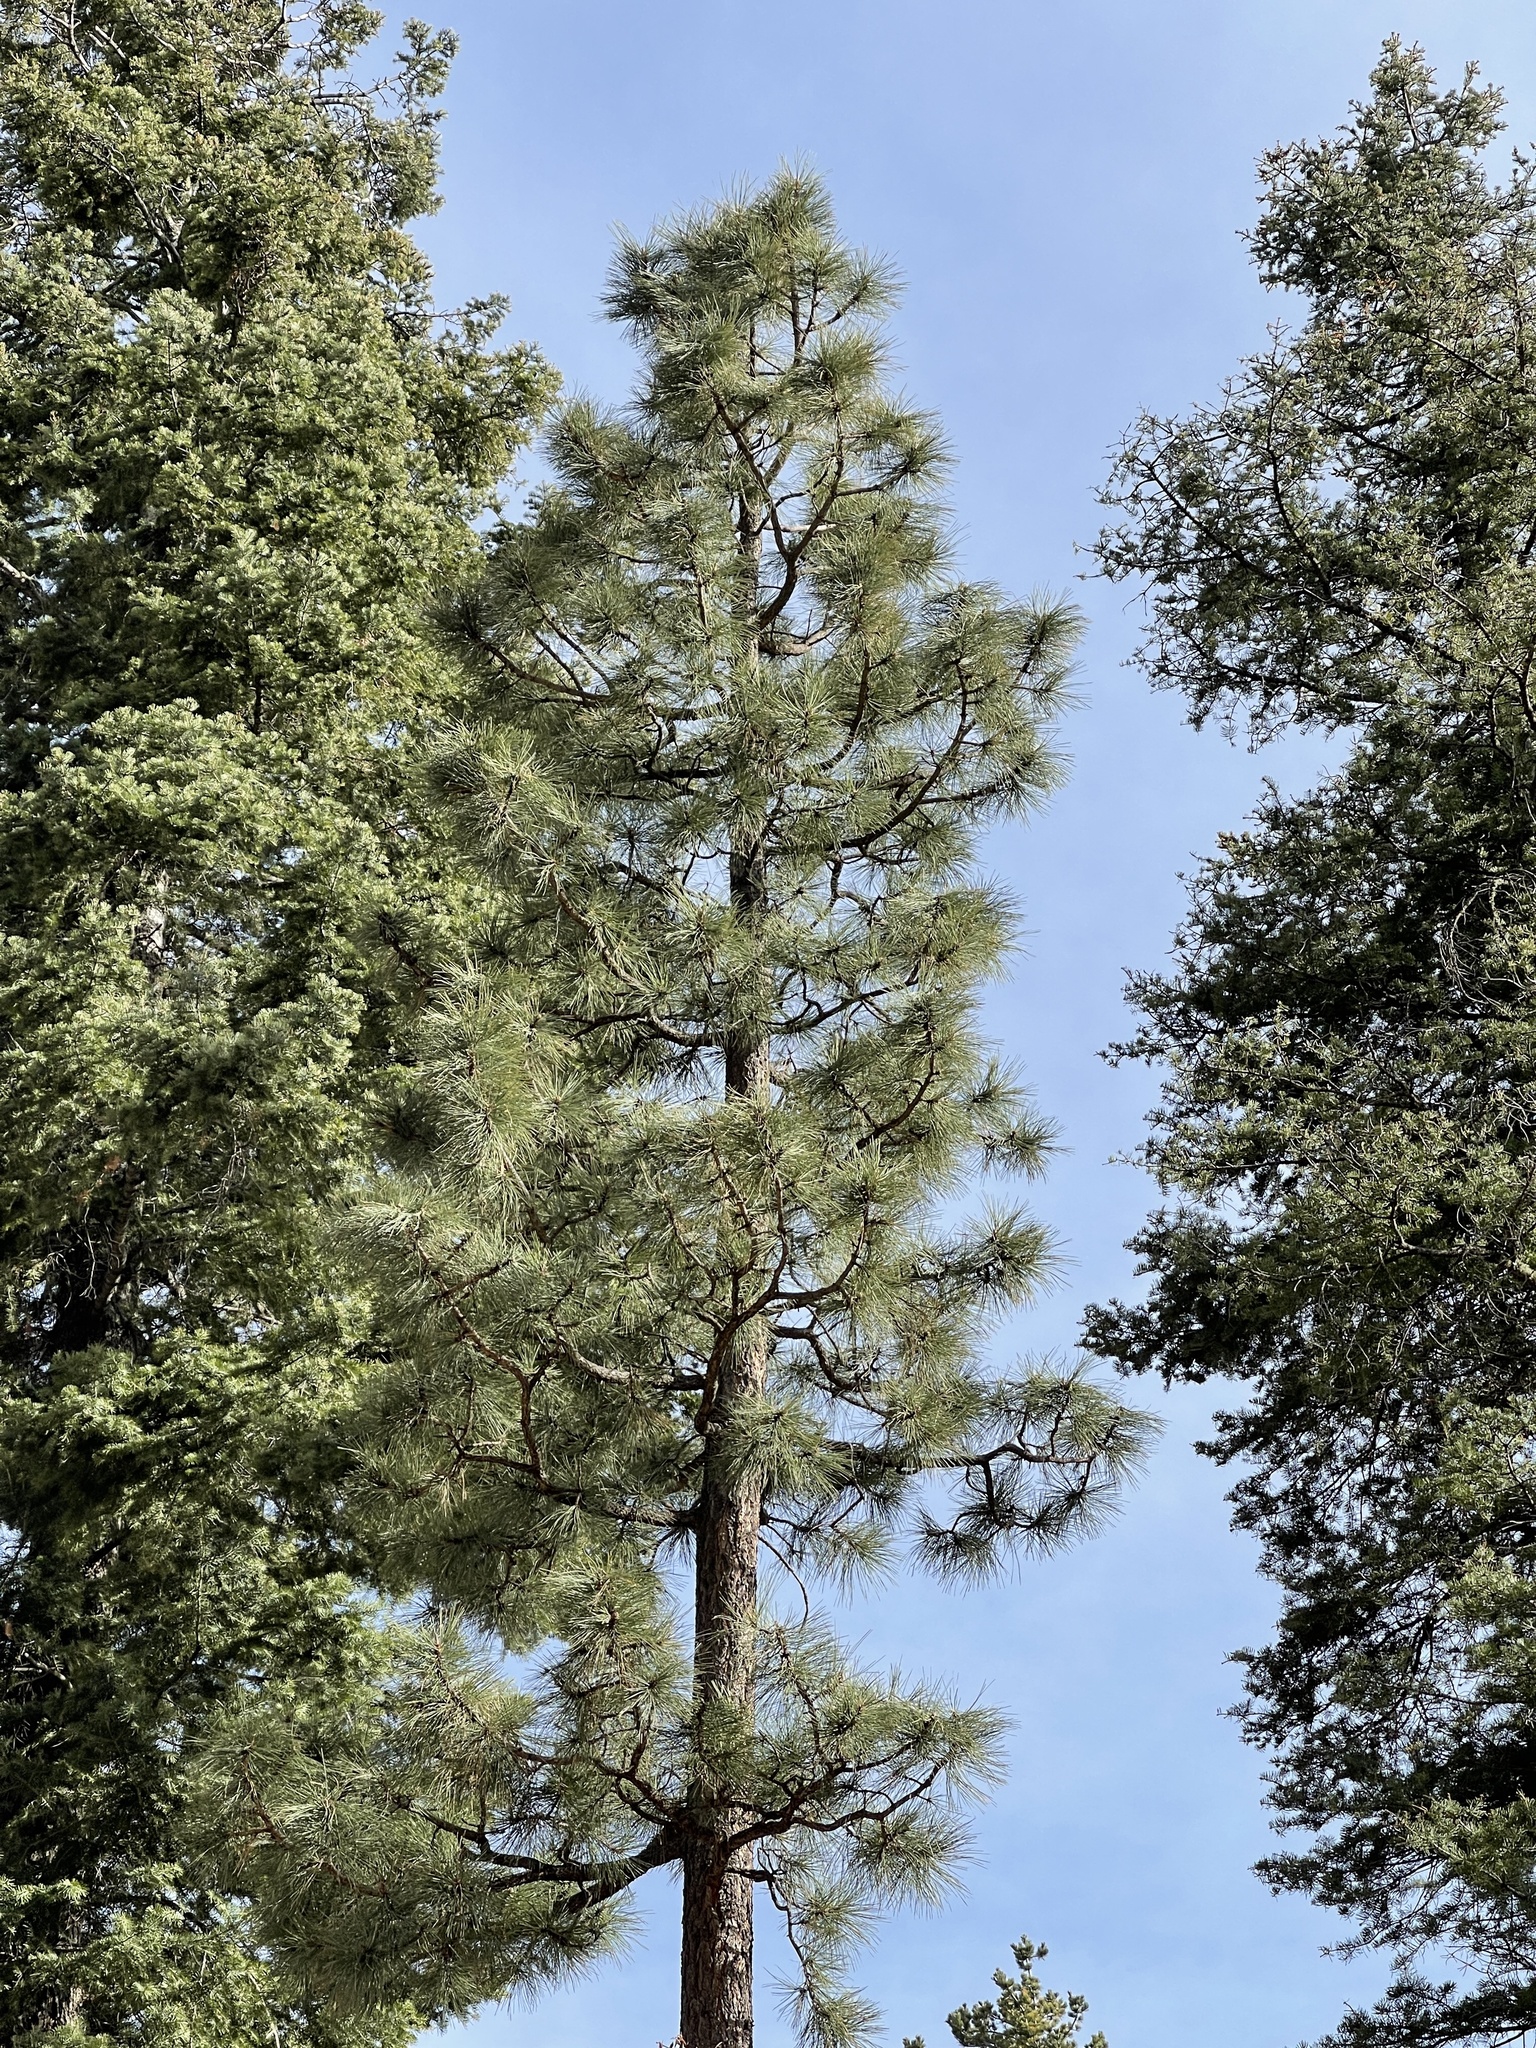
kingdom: Plantae
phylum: Tracheophyta
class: Pinopsida
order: Pinales
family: Pinaceae
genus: Pinus
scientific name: Pinus ponderosa
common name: Western yellow-pine
